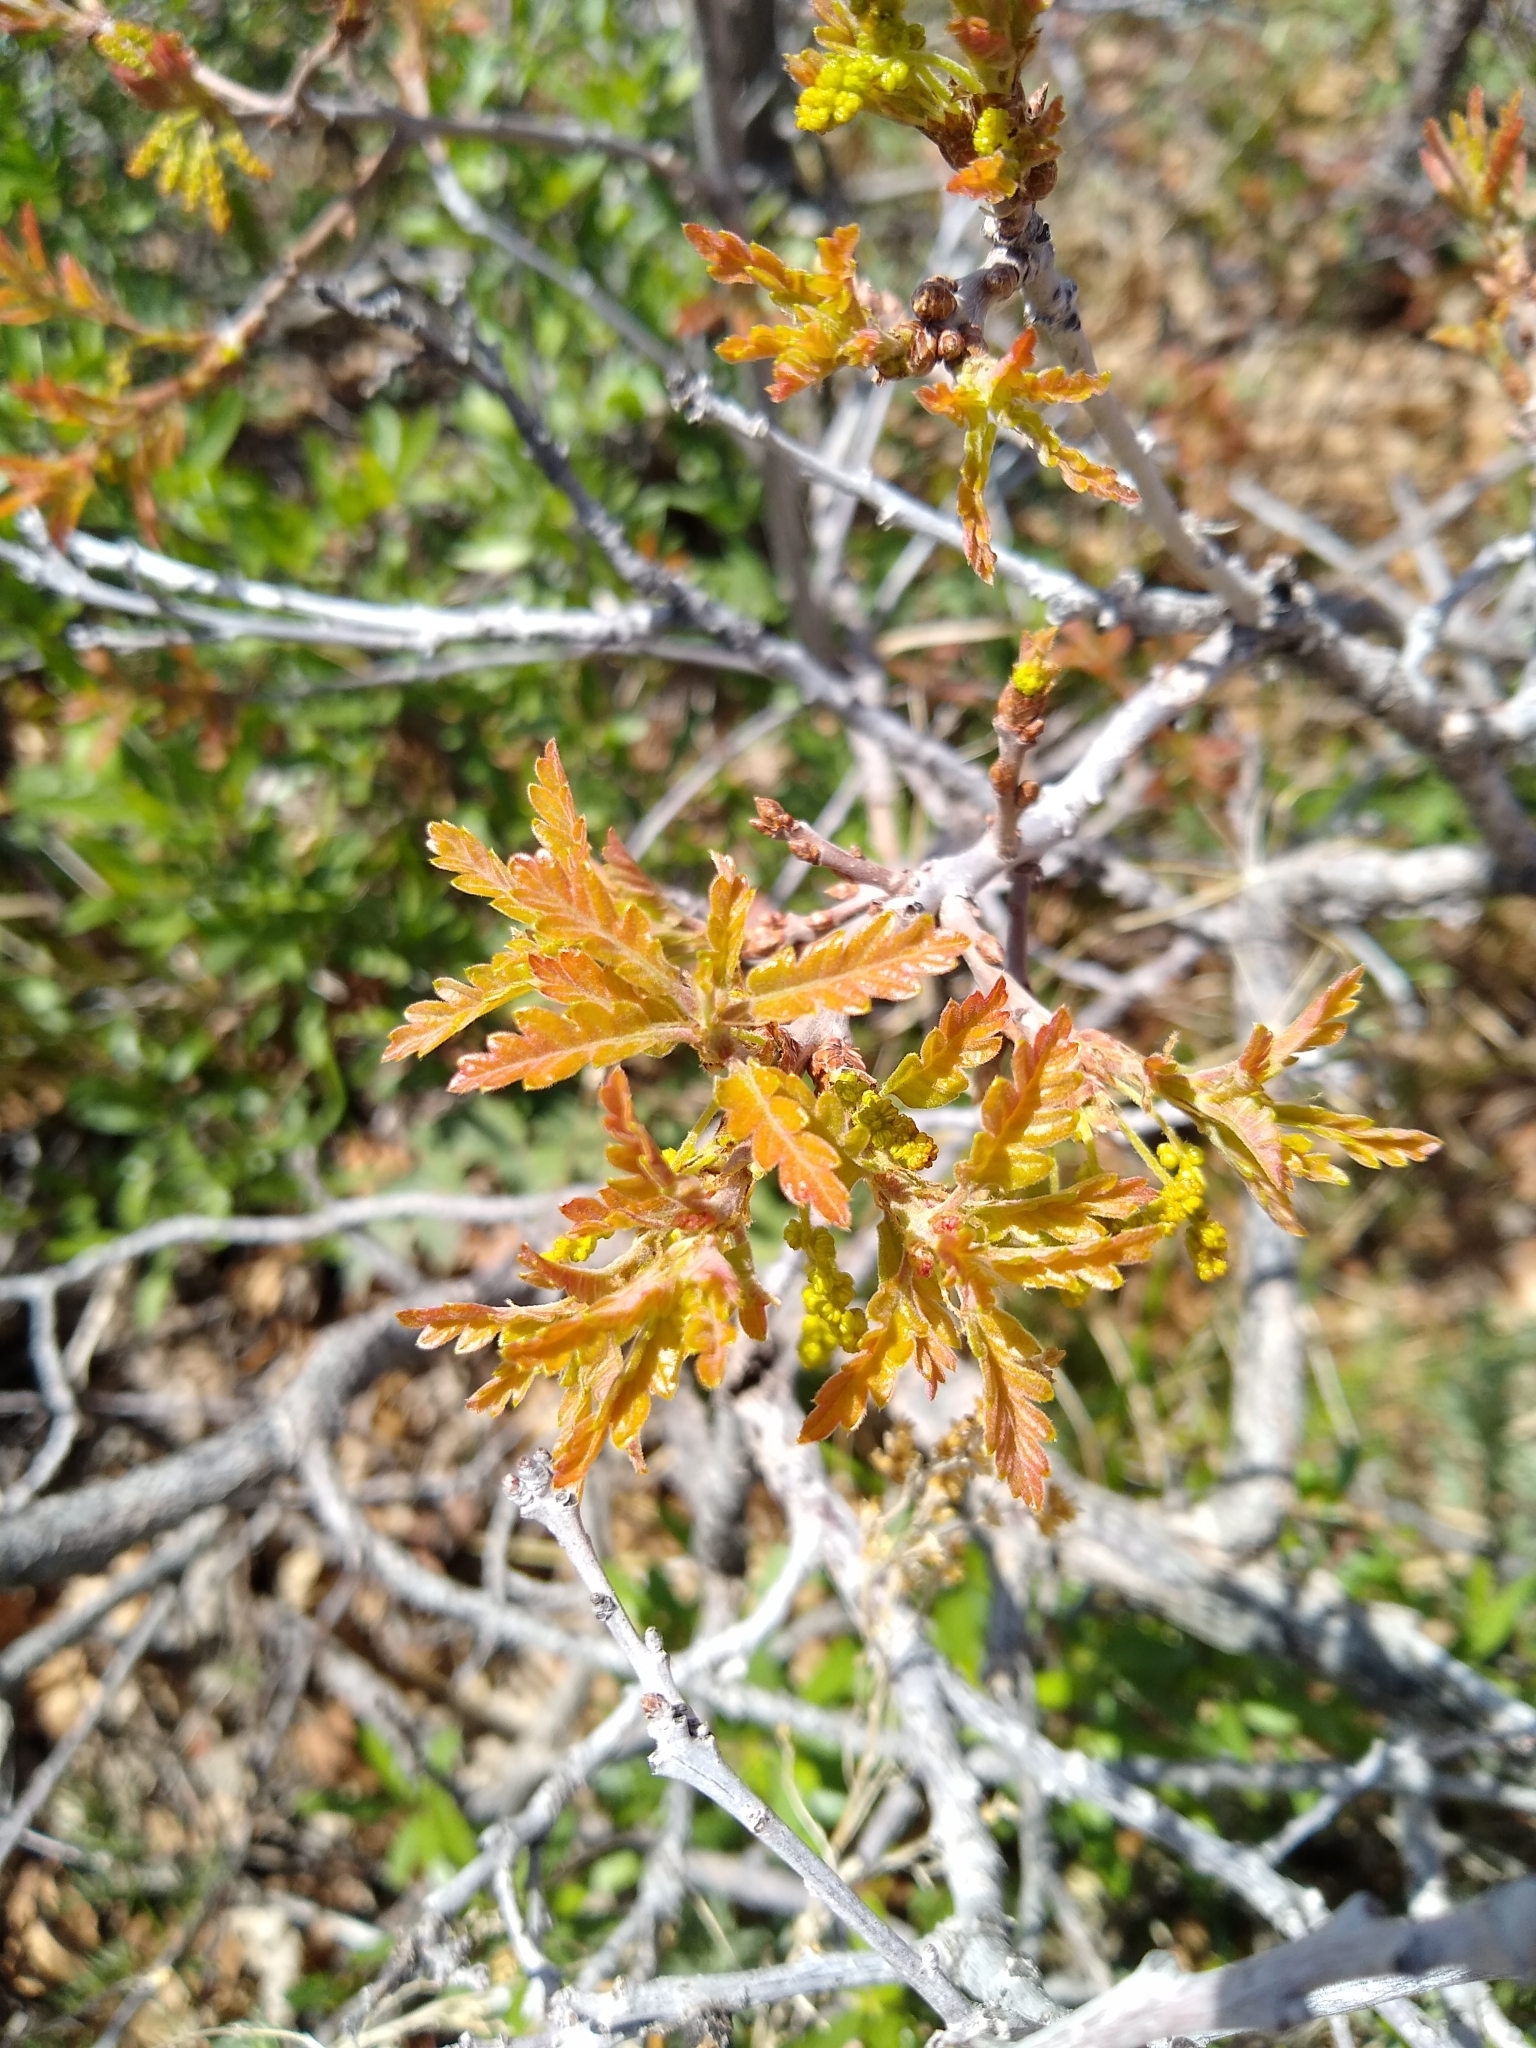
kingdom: Plantae
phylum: Tracheophyta
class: Magnoliopsida
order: Fagales
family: Fagaceae
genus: Quercus
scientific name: Quercus gambelii
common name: Gambel oak
